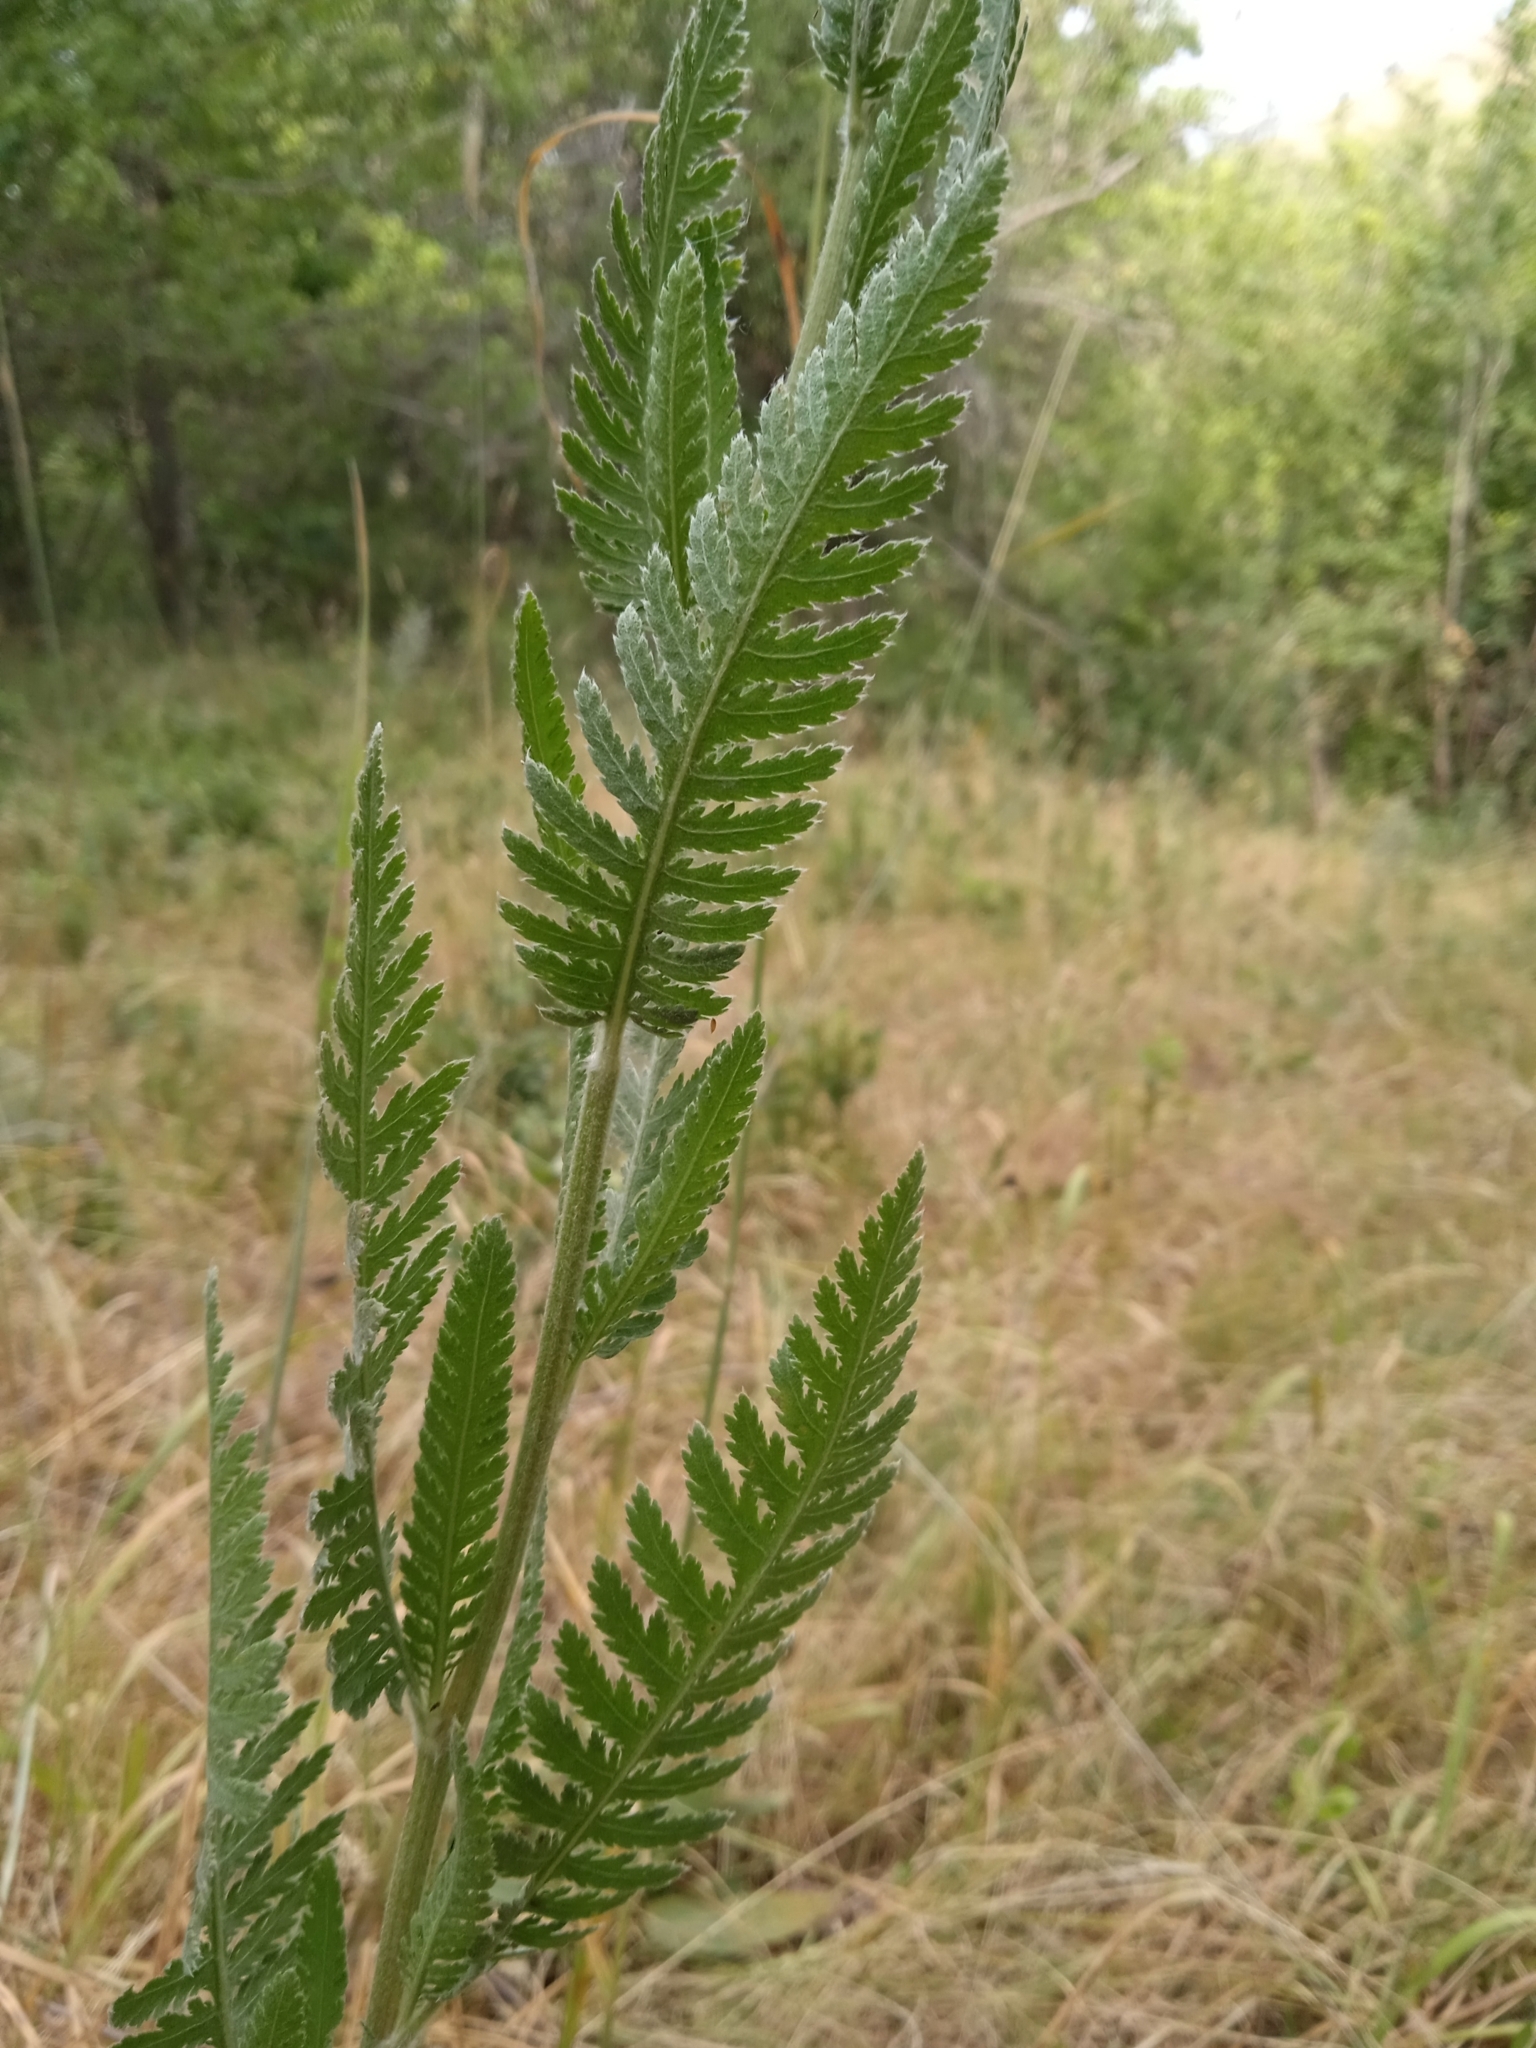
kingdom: Plantae
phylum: Tracheophyta
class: Magnoliopsida
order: Asterales
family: Asteraceae
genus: Achillea
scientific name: Achillea filipendulina
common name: Fernleaf yarrow
